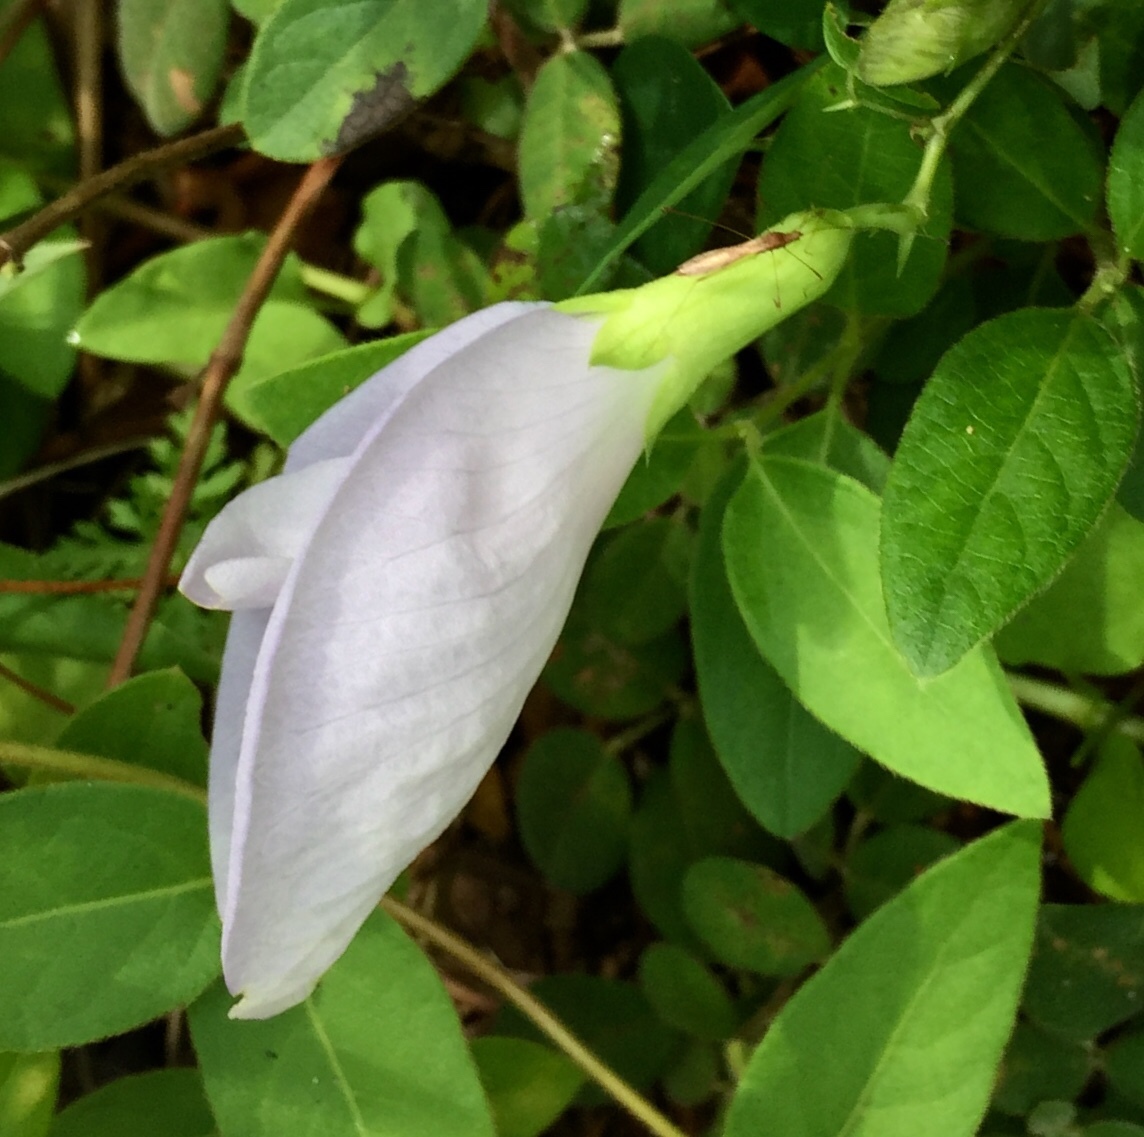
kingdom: Plantae
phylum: Tracheophyta
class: Magnoliopsida
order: Fabales
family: Fabaceae
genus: Clitoria
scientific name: Clitoria mariana
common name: Butterfly-pea
